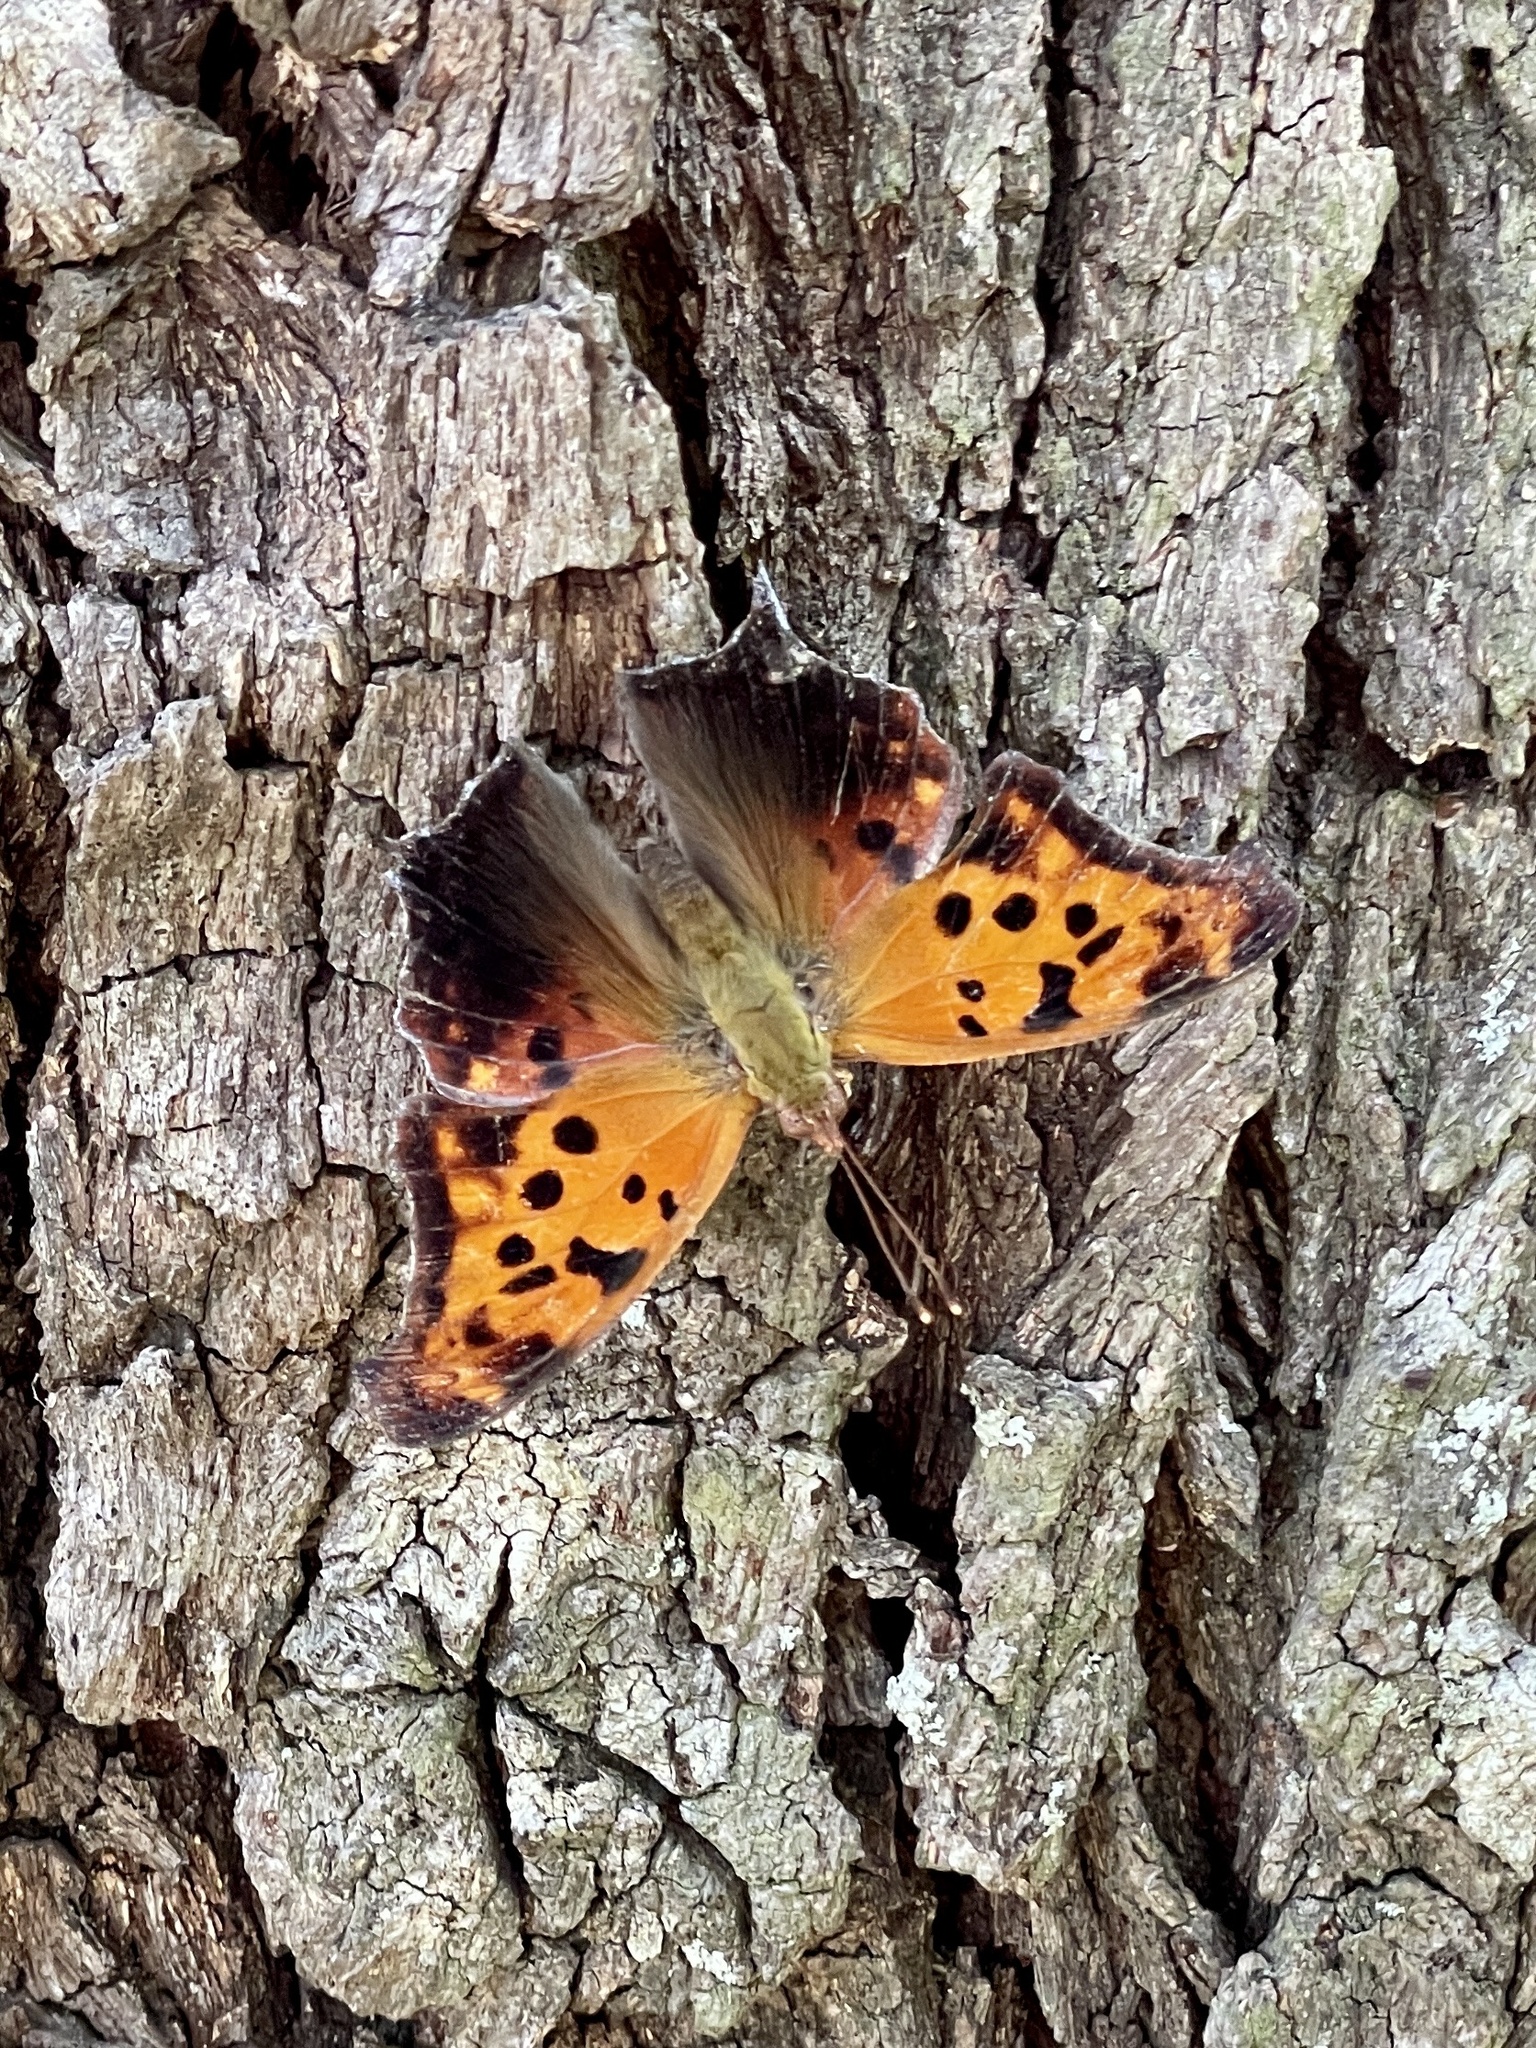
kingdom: Animalia
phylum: Arthropoda
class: Insecta
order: Lepidoptera
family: Nymphalidae
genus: Polygonia
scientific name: Polygonia interrogationis
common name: Question mark
